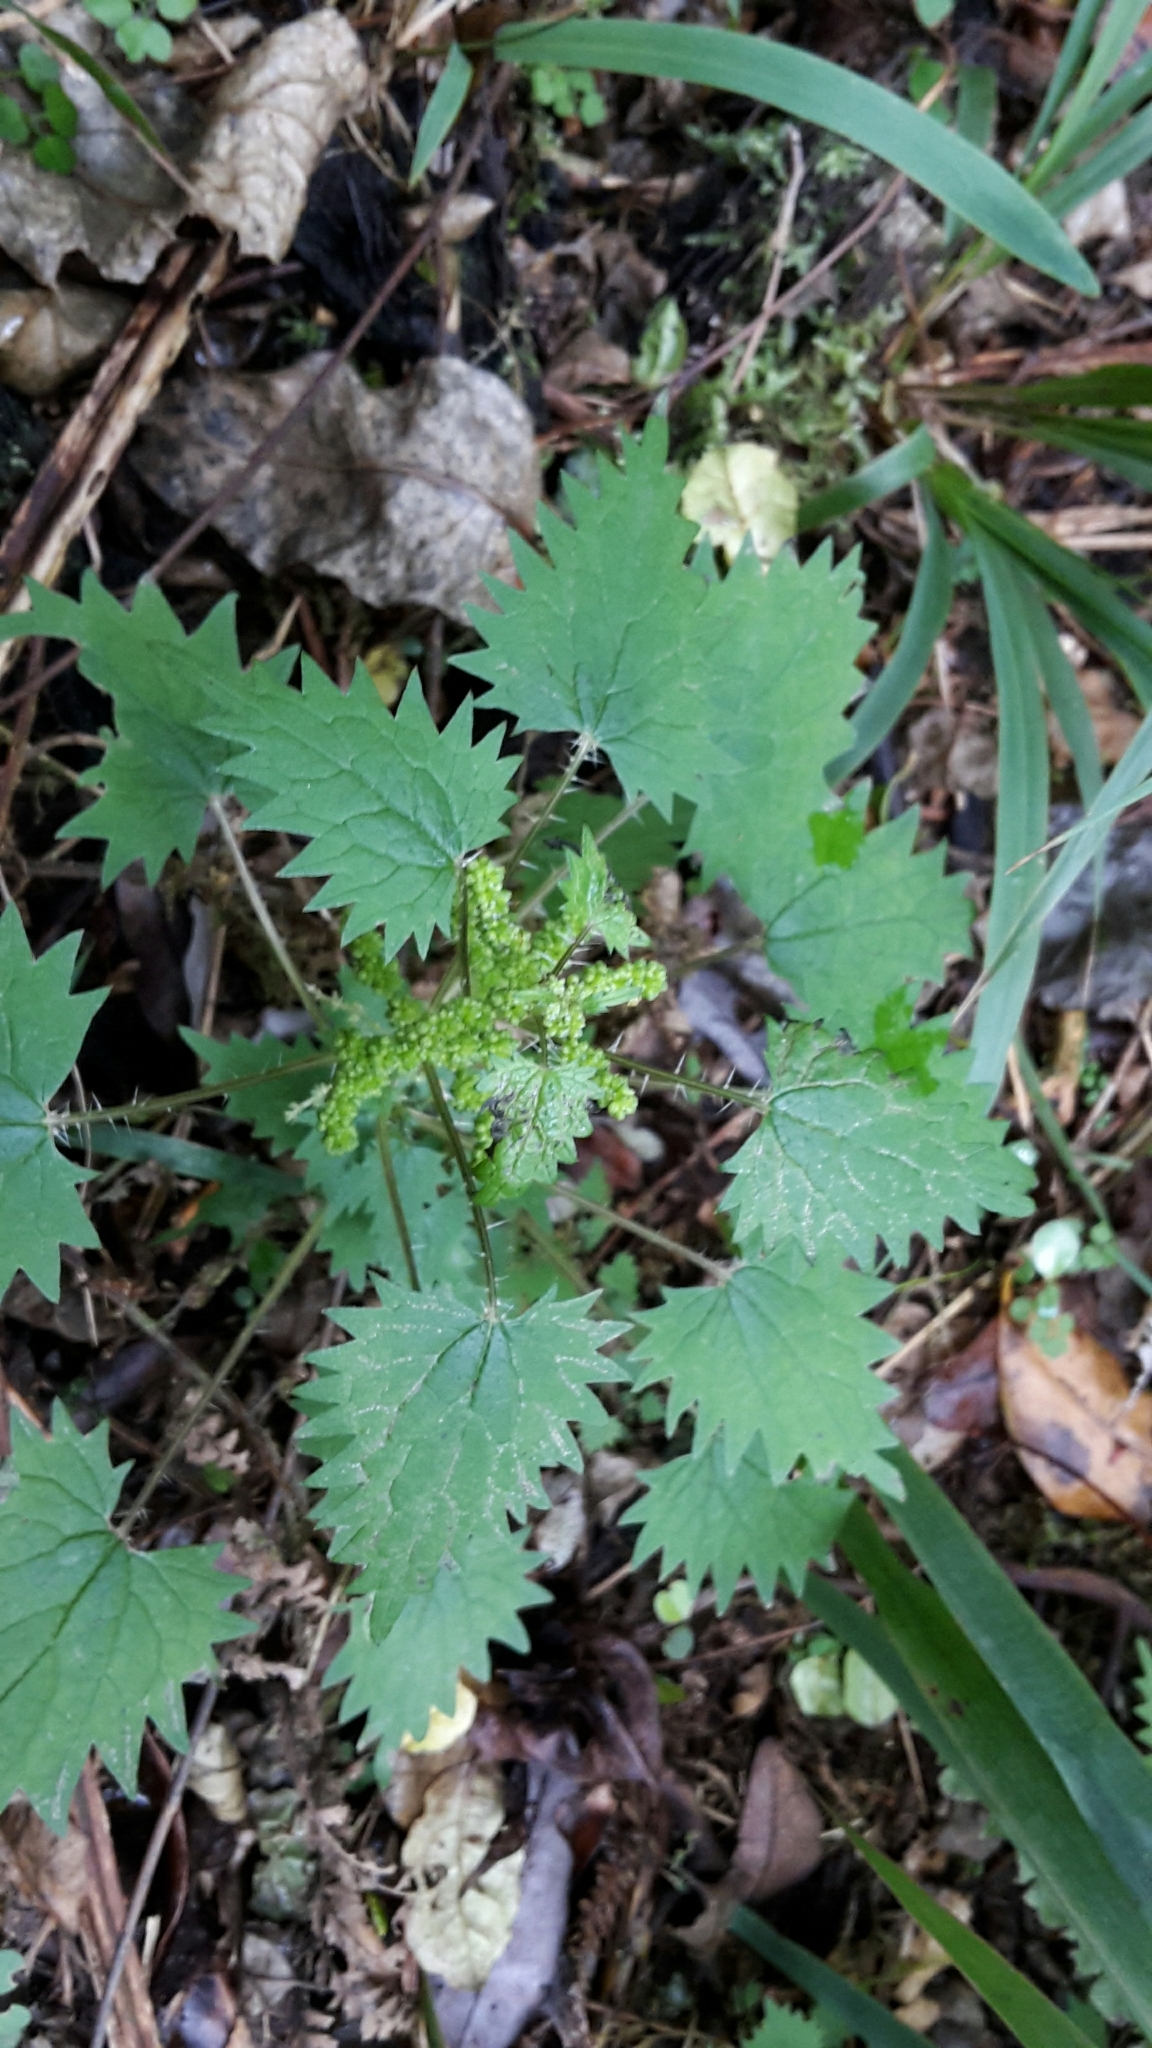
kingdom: Plantae
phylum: Tracheophyta
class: Magnoliopsida
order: Rosales
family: Urticaceae
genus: Urtica
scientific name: Urtica sykesii
